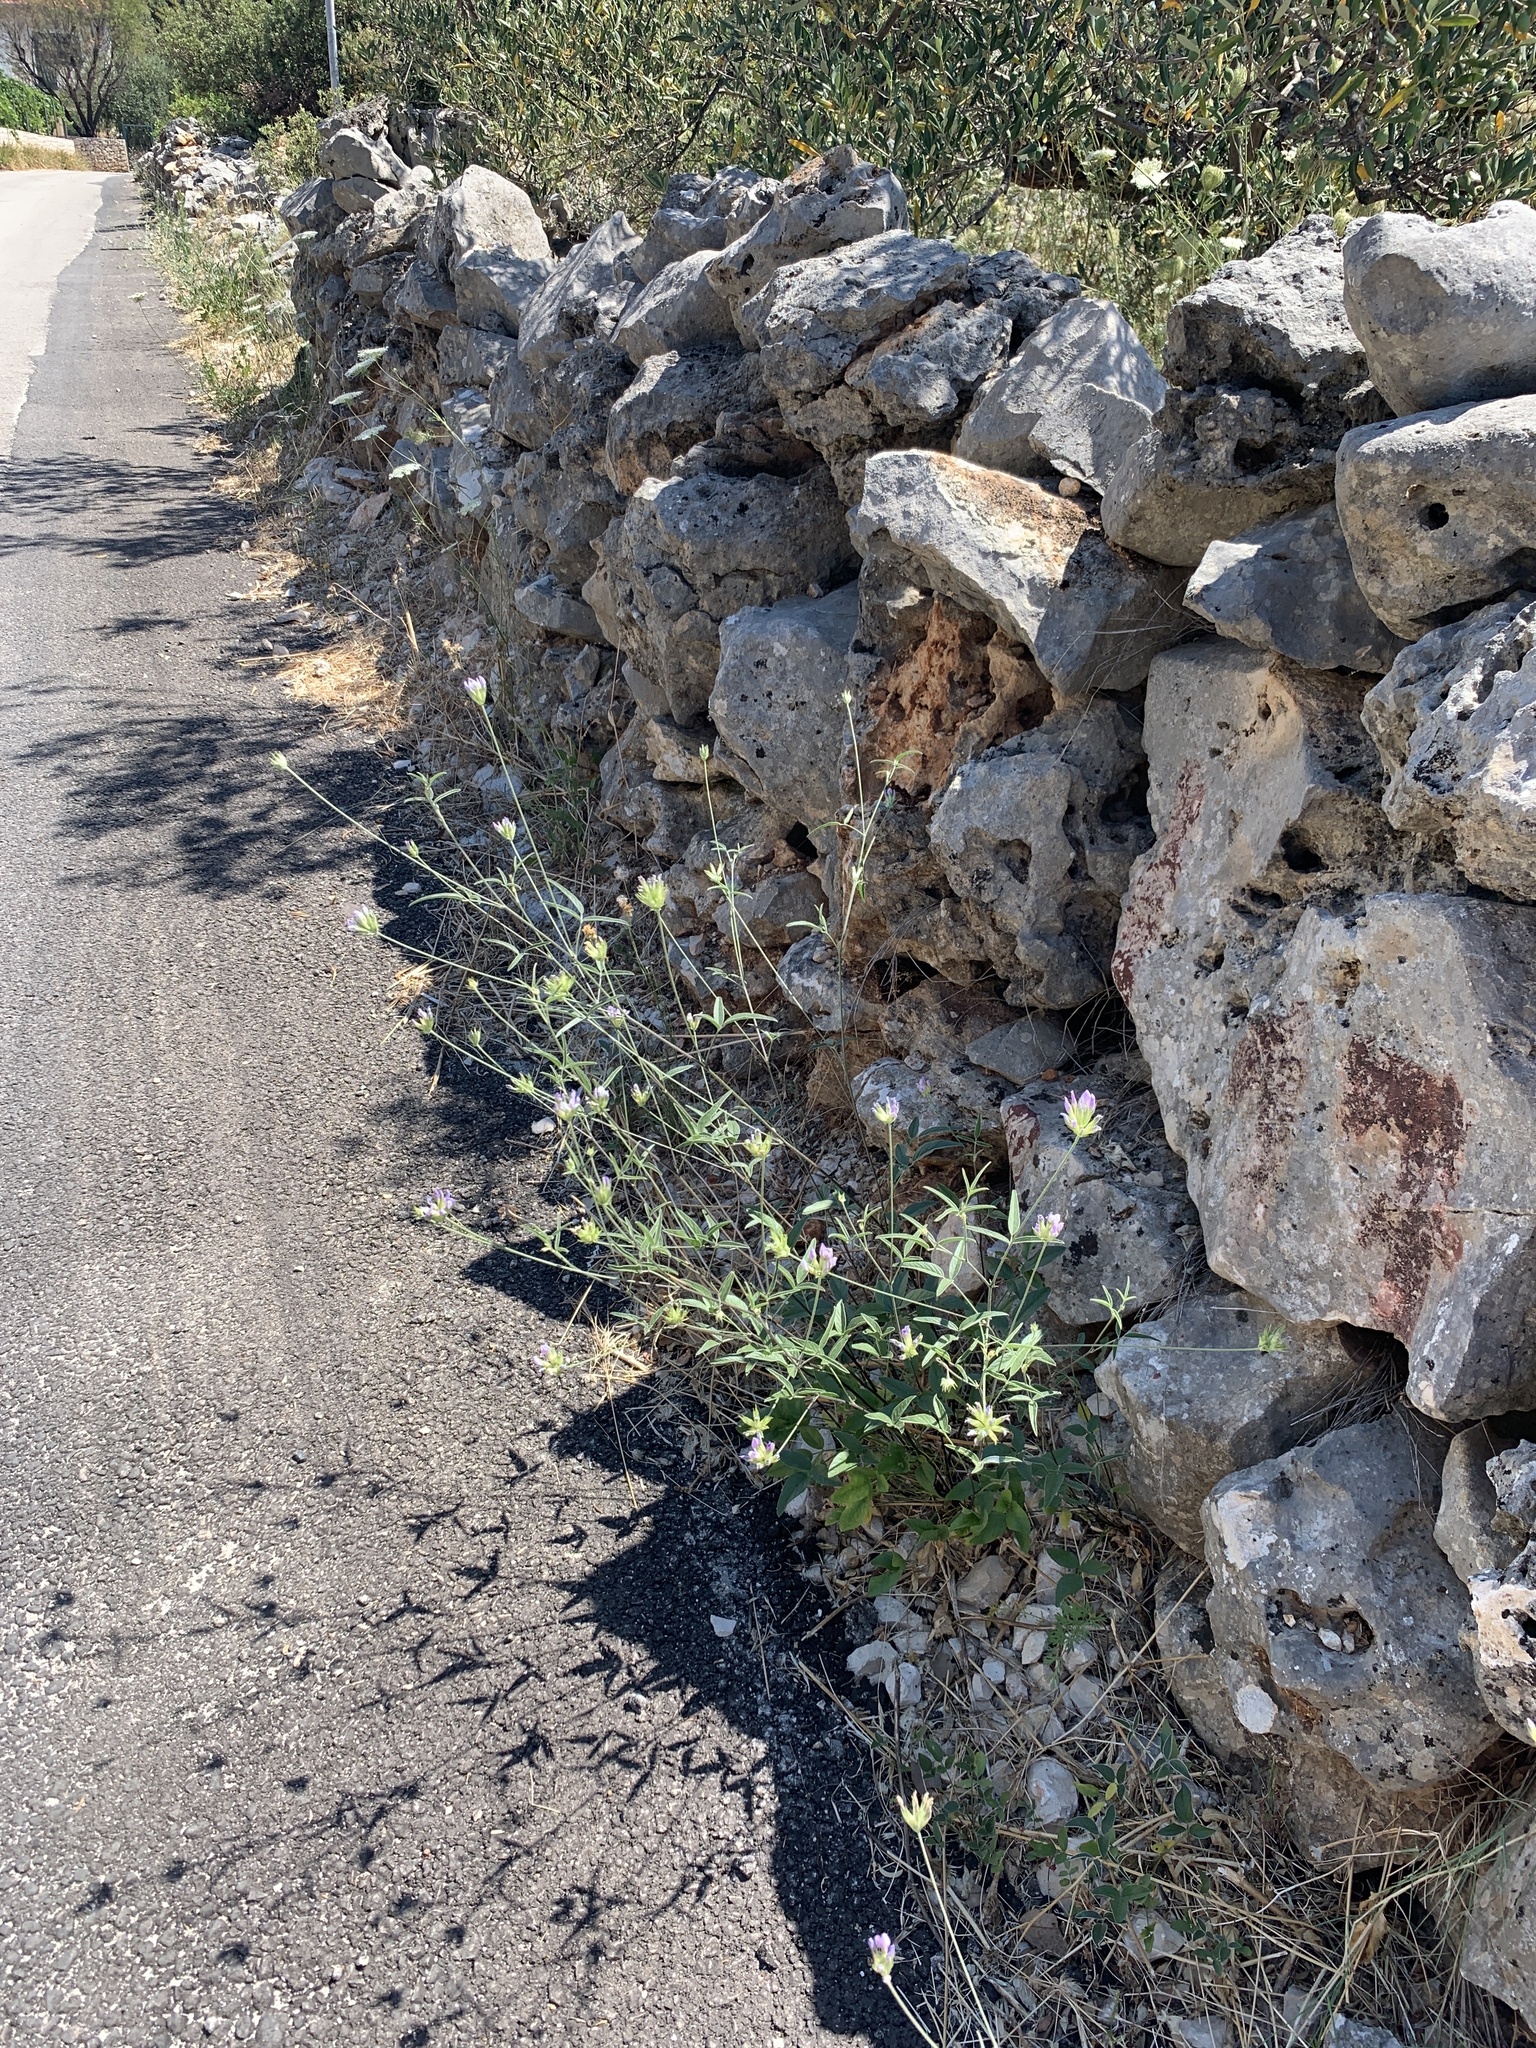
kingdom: Plantae
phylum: Tracheophyta
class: Magnoliopsida
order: Fabales
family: Fabaceae
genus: Bituminaria
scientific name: Bituminaria bituminosa
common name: Arabian pea
